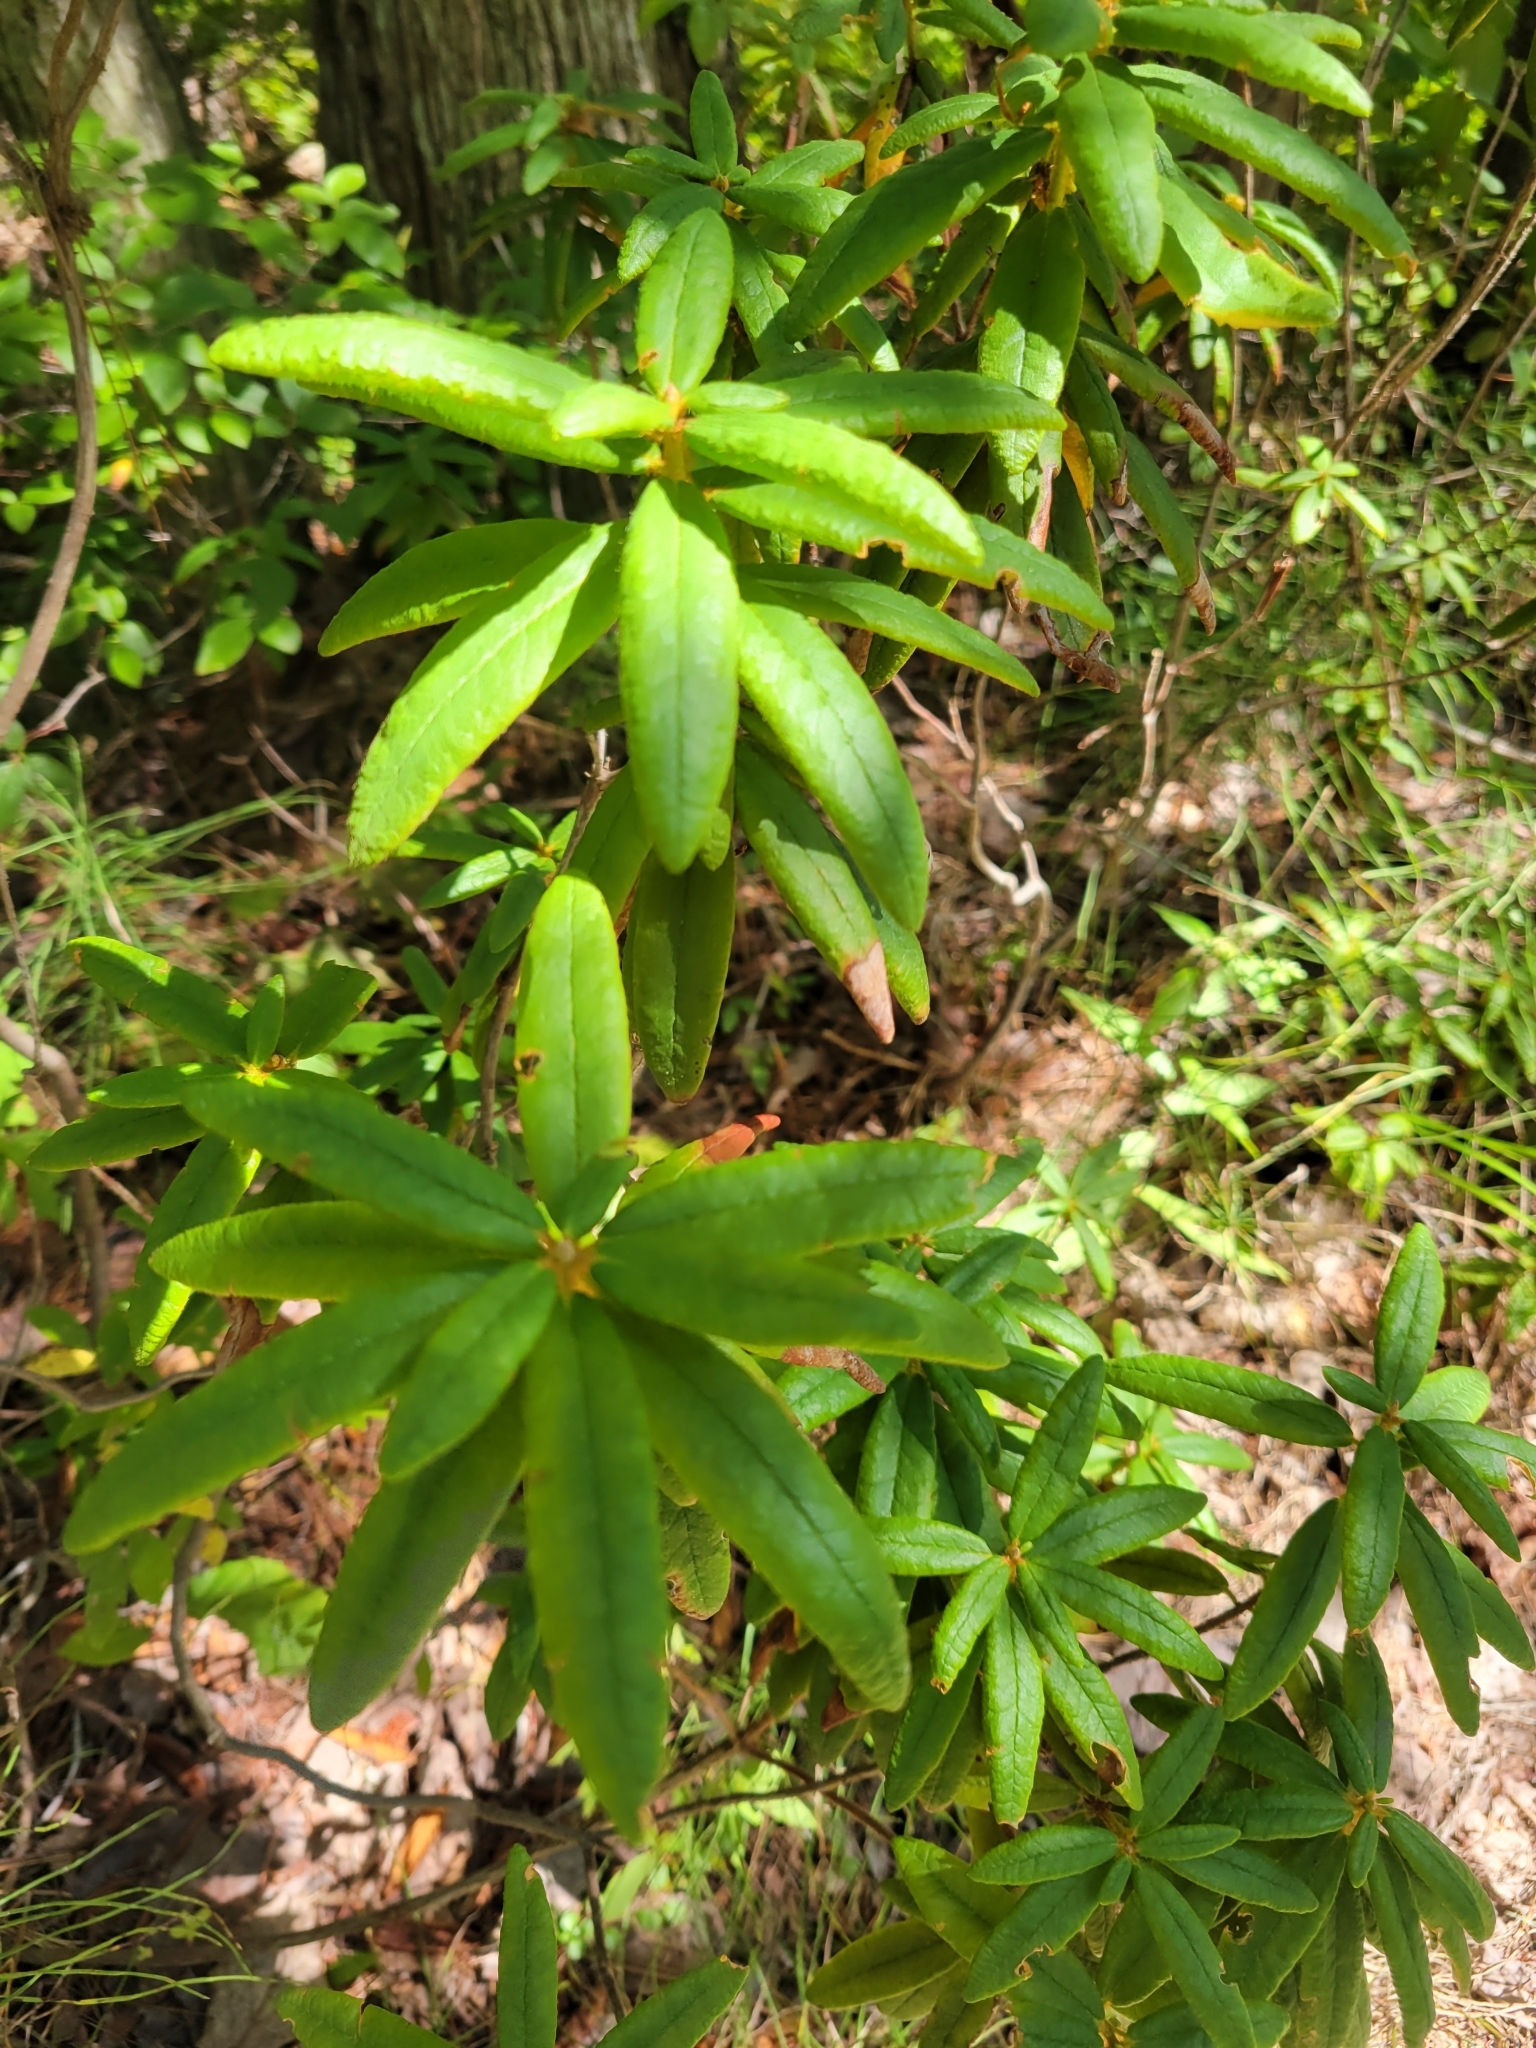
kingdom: Plantae
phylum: Tracheophyta
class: Magnoliopsida
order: Ericales
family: Ericaceae
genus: Rhododendron
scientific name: Rhododendron groenlandicum
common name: Bog labrador tea
